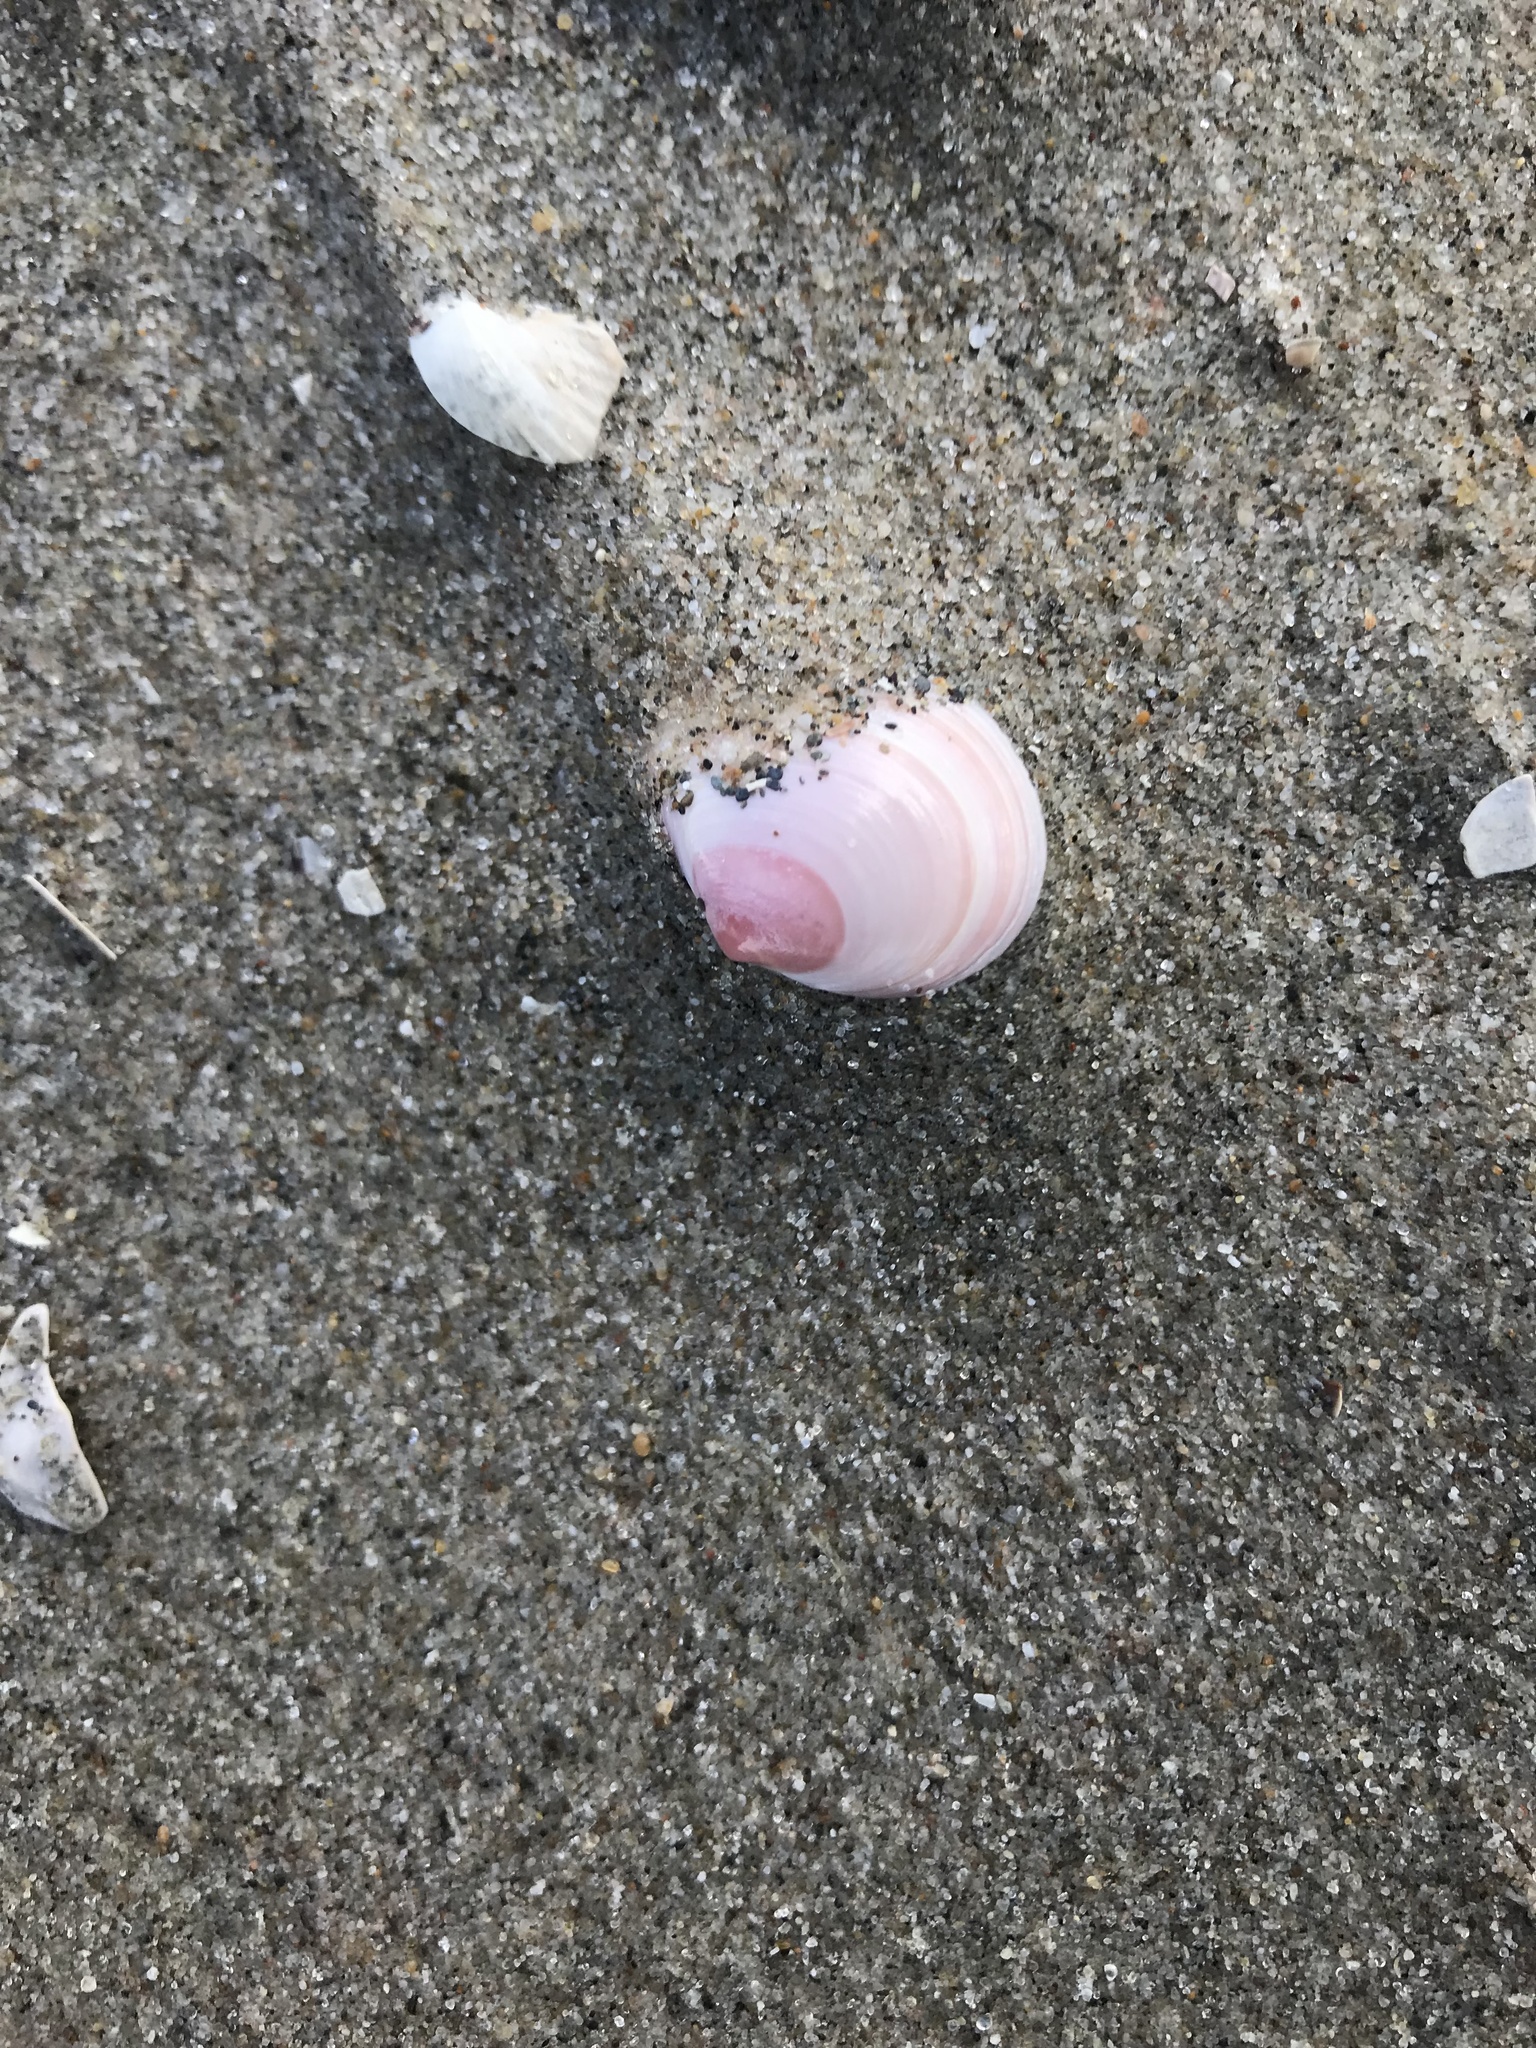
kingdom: Animalia
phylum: Mollusca
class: Bivalvia
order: Cardiida
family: Tellinidae
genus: Macoma
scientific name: Macoma balthica
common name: Baltic tellin
